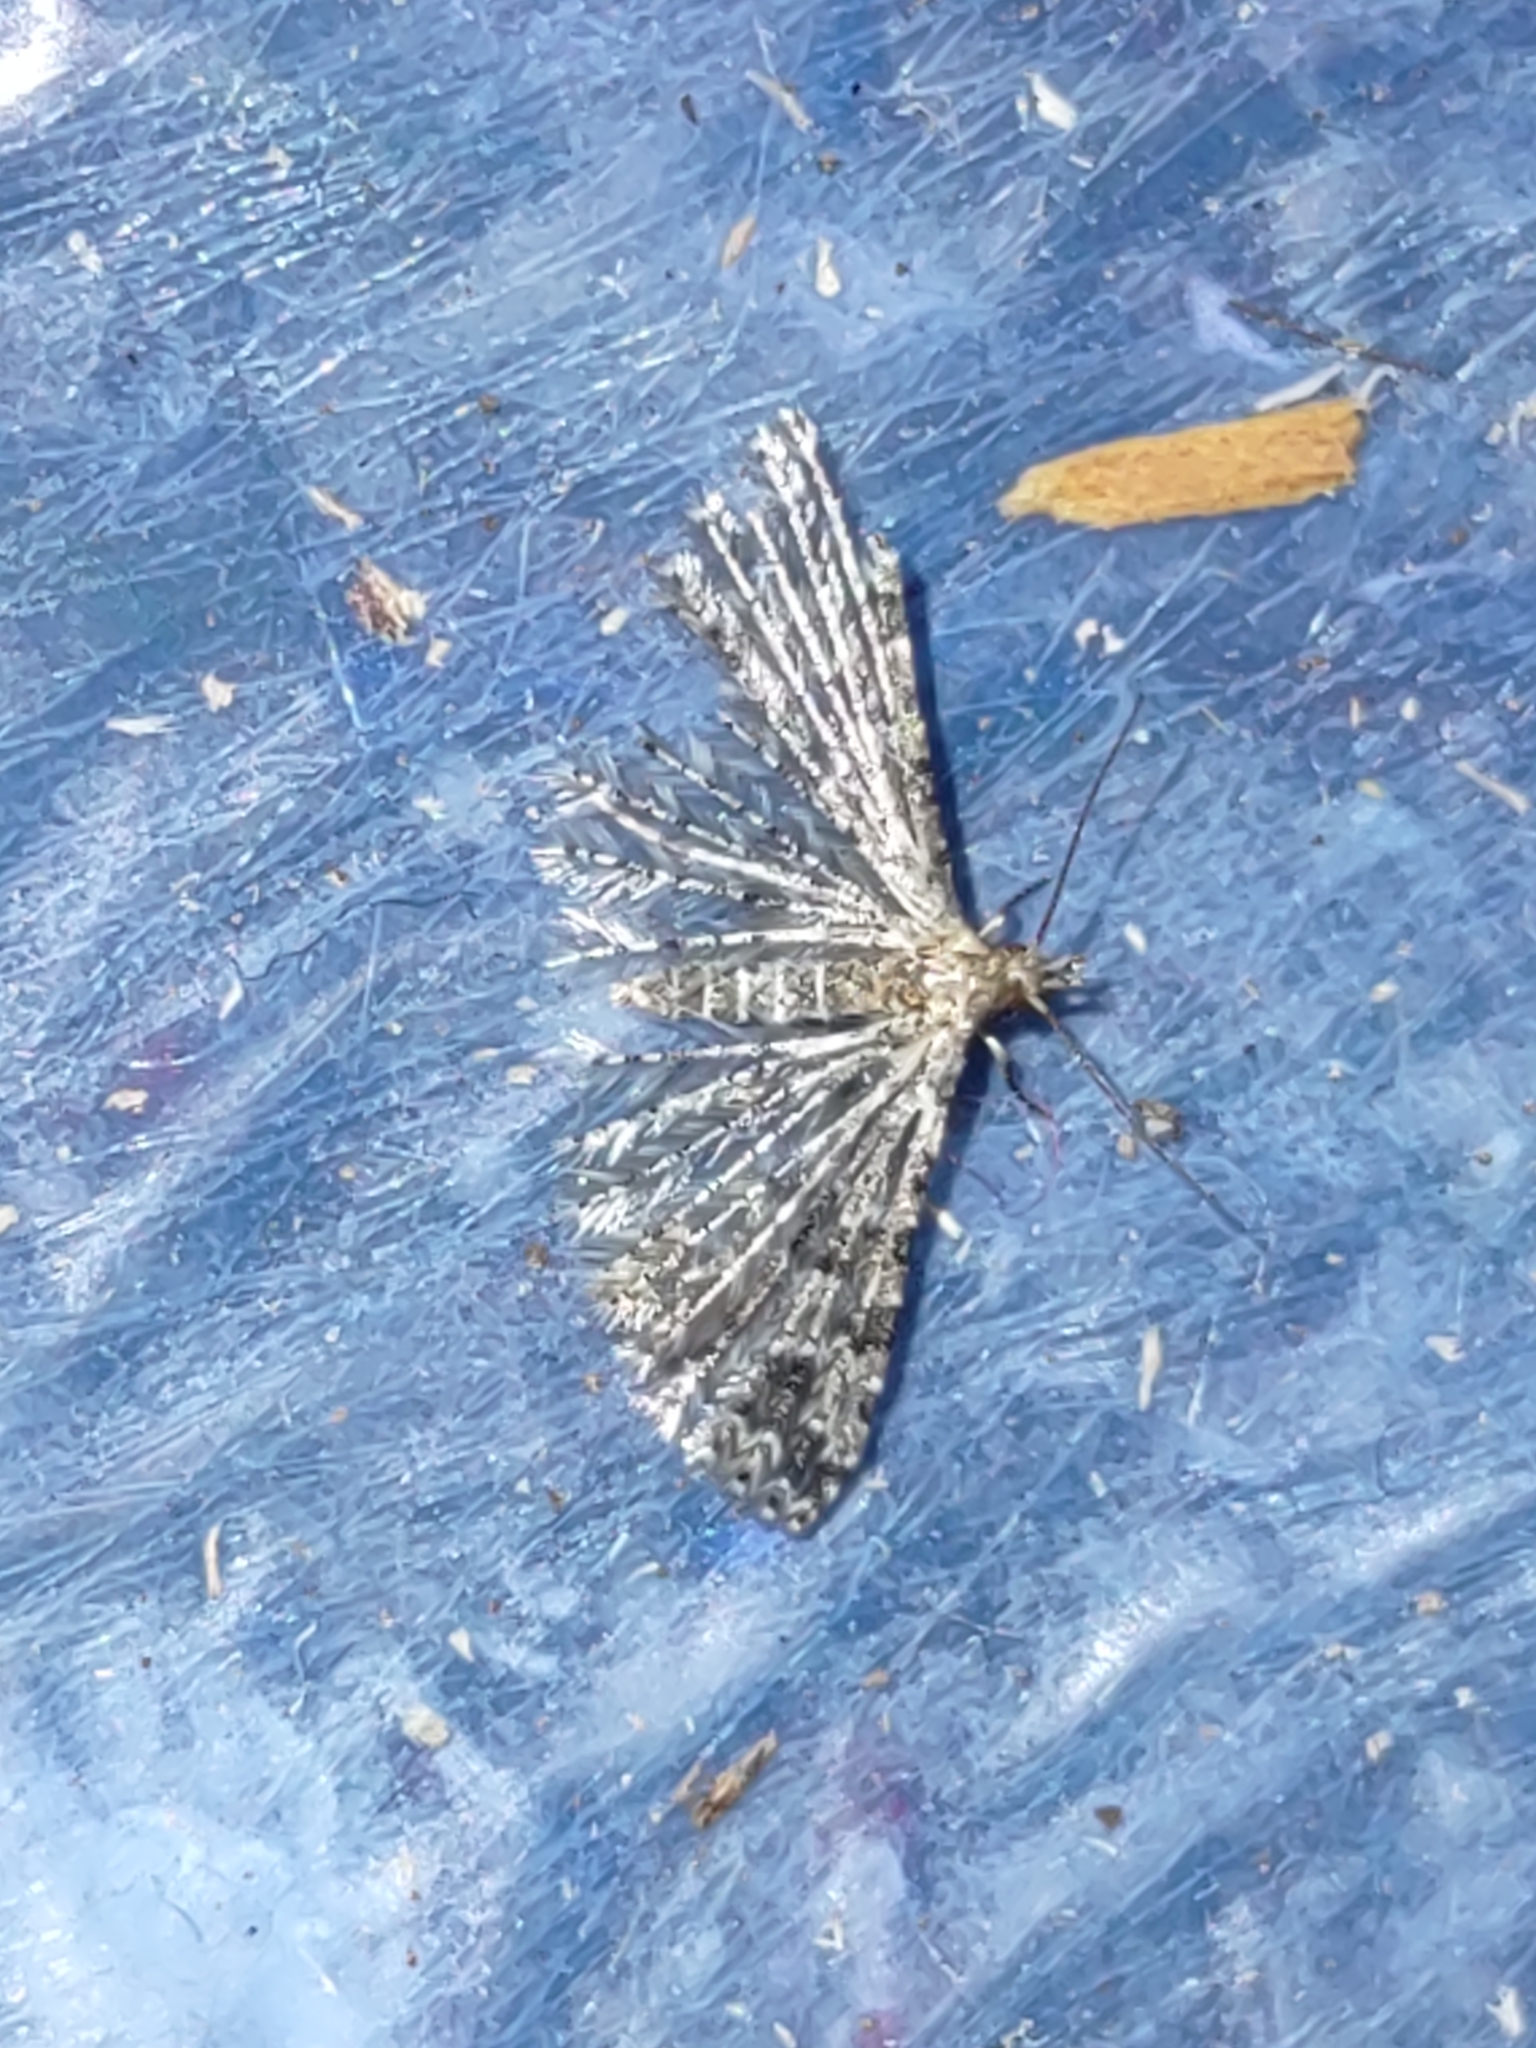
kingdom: Animalia
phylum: Arthropoda
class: Insecta
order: Lepidoptera
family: Alucitidae
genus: Alucita
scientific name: Alucita montana
